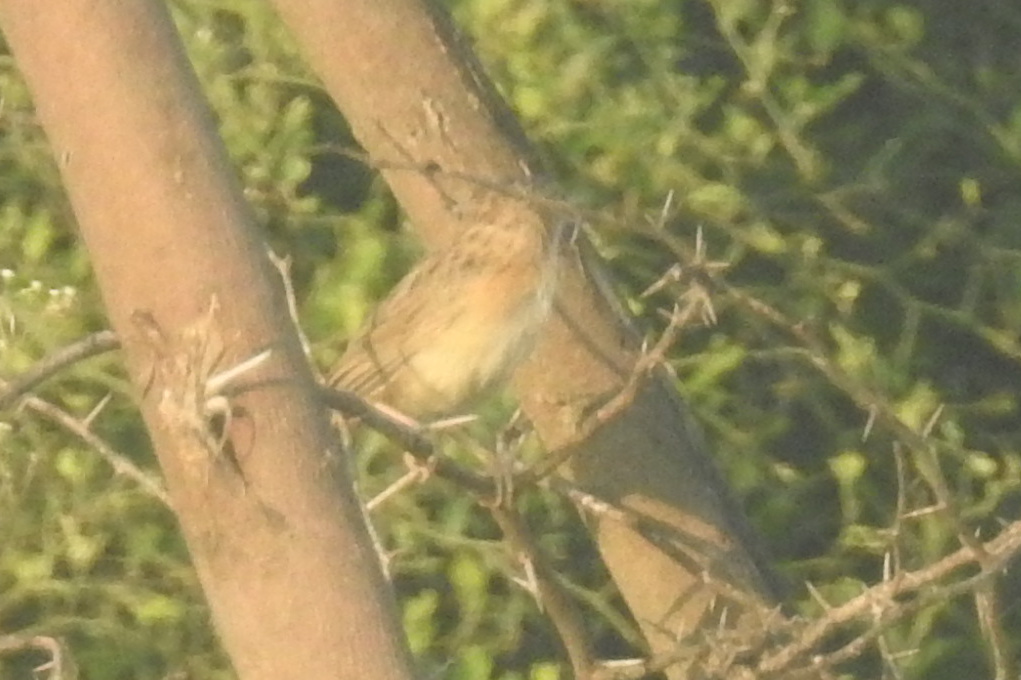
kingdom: Animalia
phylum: Chordata
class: Aves
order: Passeriformes
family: Leiothrichidae
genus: Turdoides
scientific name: Turdoides caudata
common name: Common babbler
